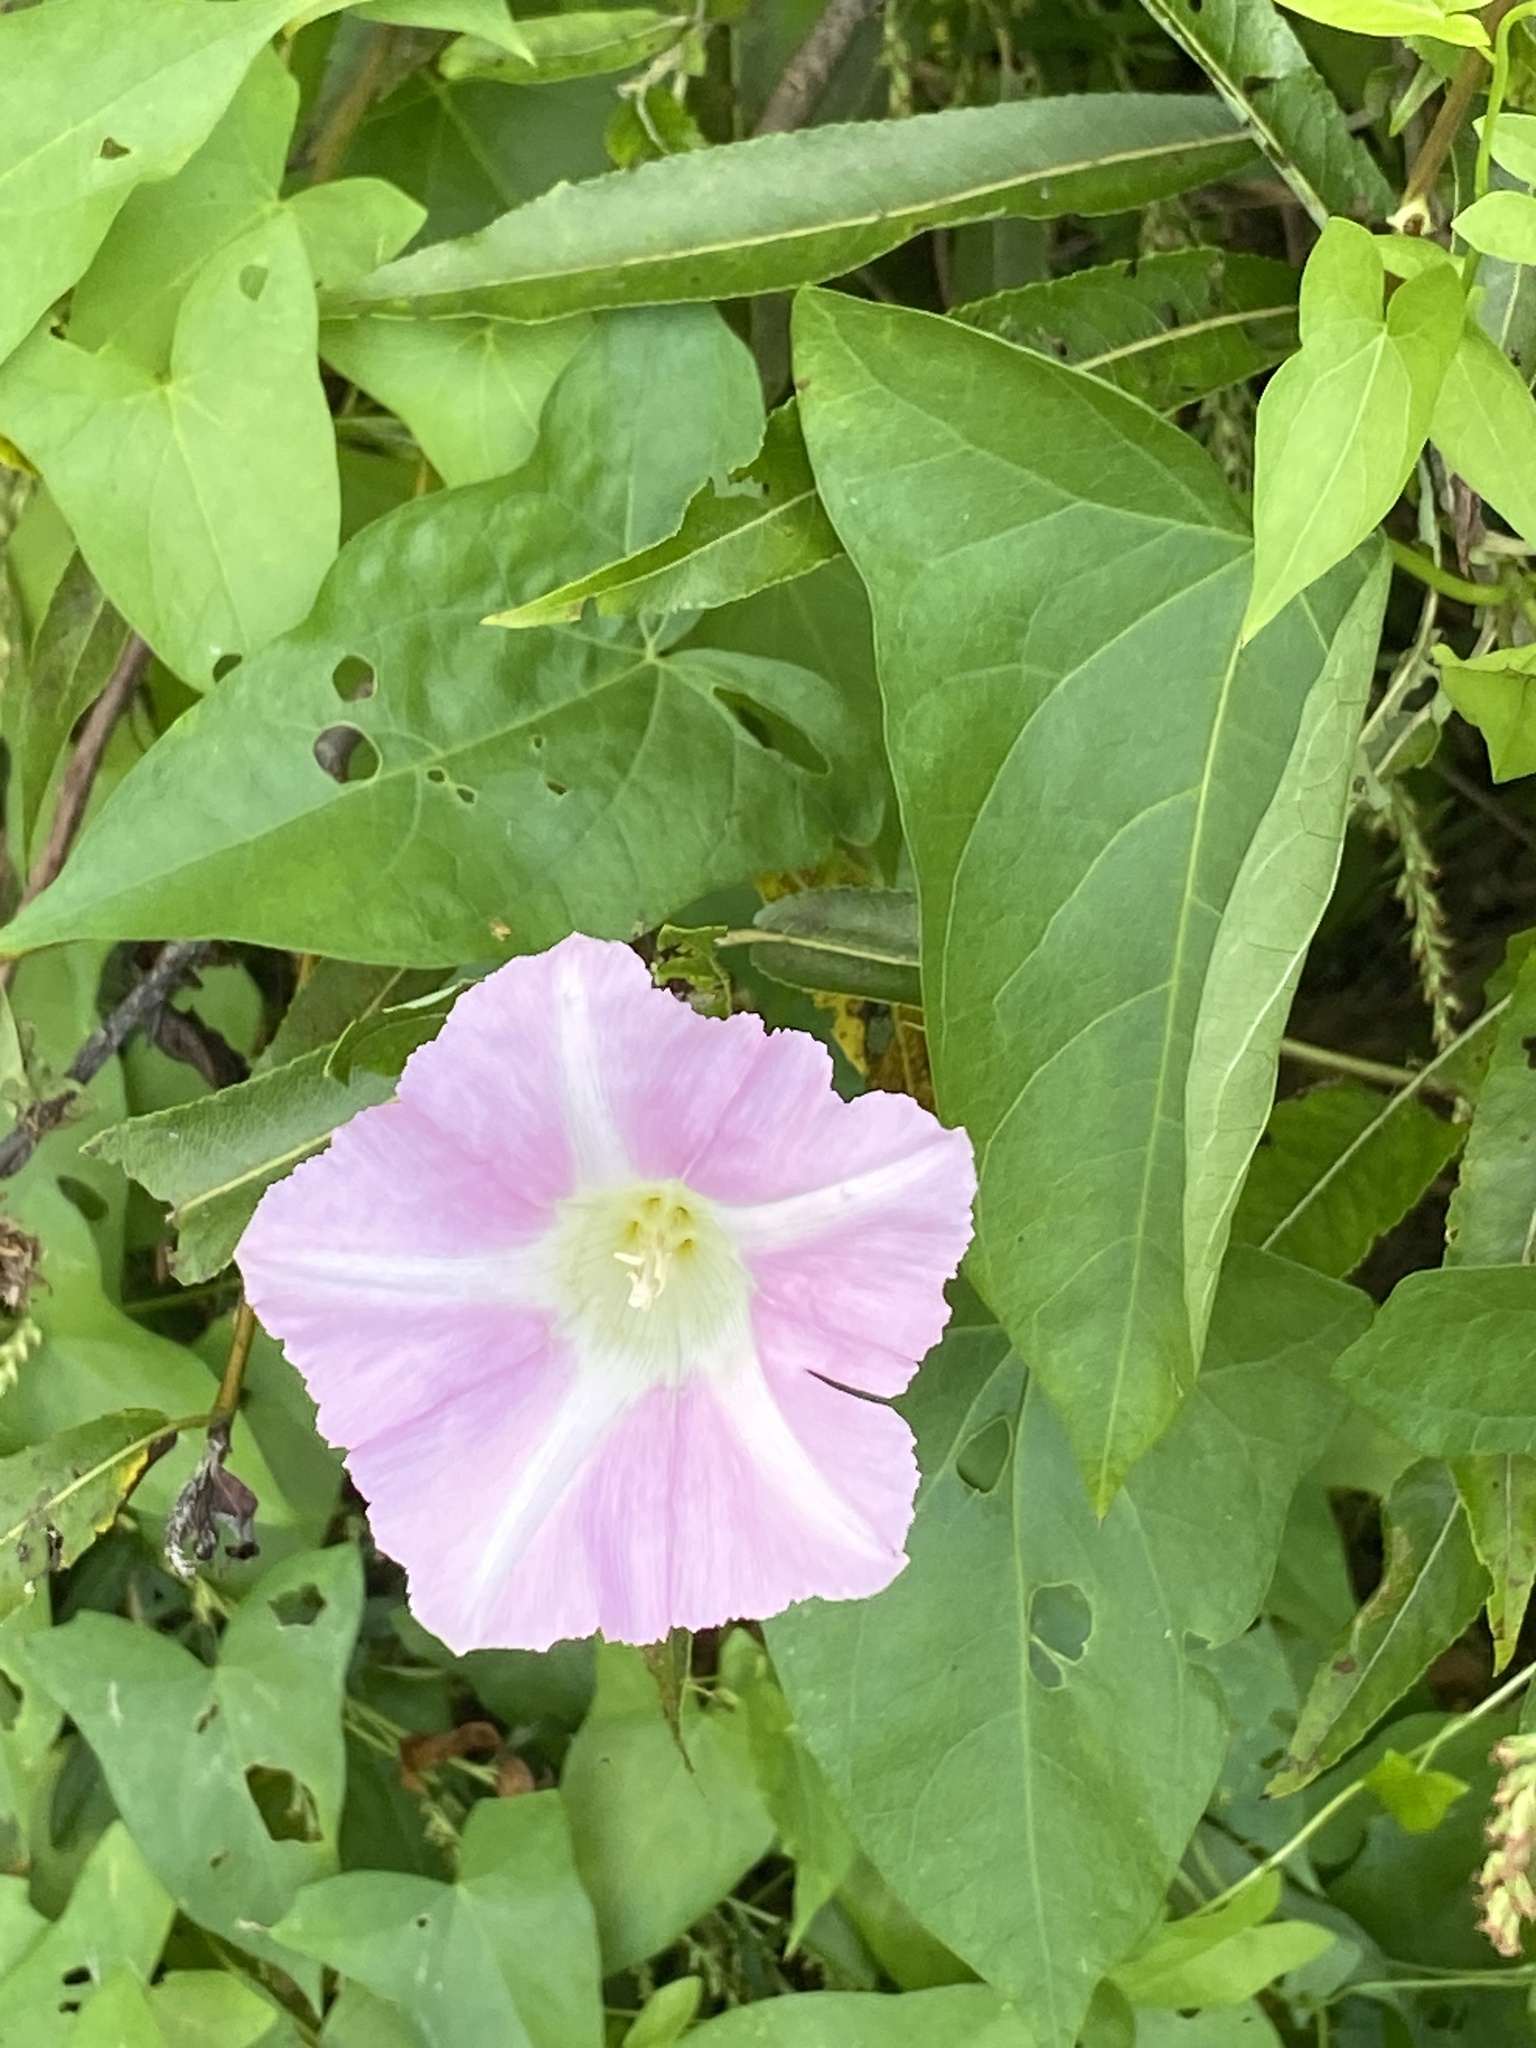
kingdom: Plantae
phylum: Tracheophyta
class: Magnoliopsida
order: Solanales
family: Convolvulaceae
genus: Calystegia
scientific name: Calystegia sepium
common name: Hedge bindweed
